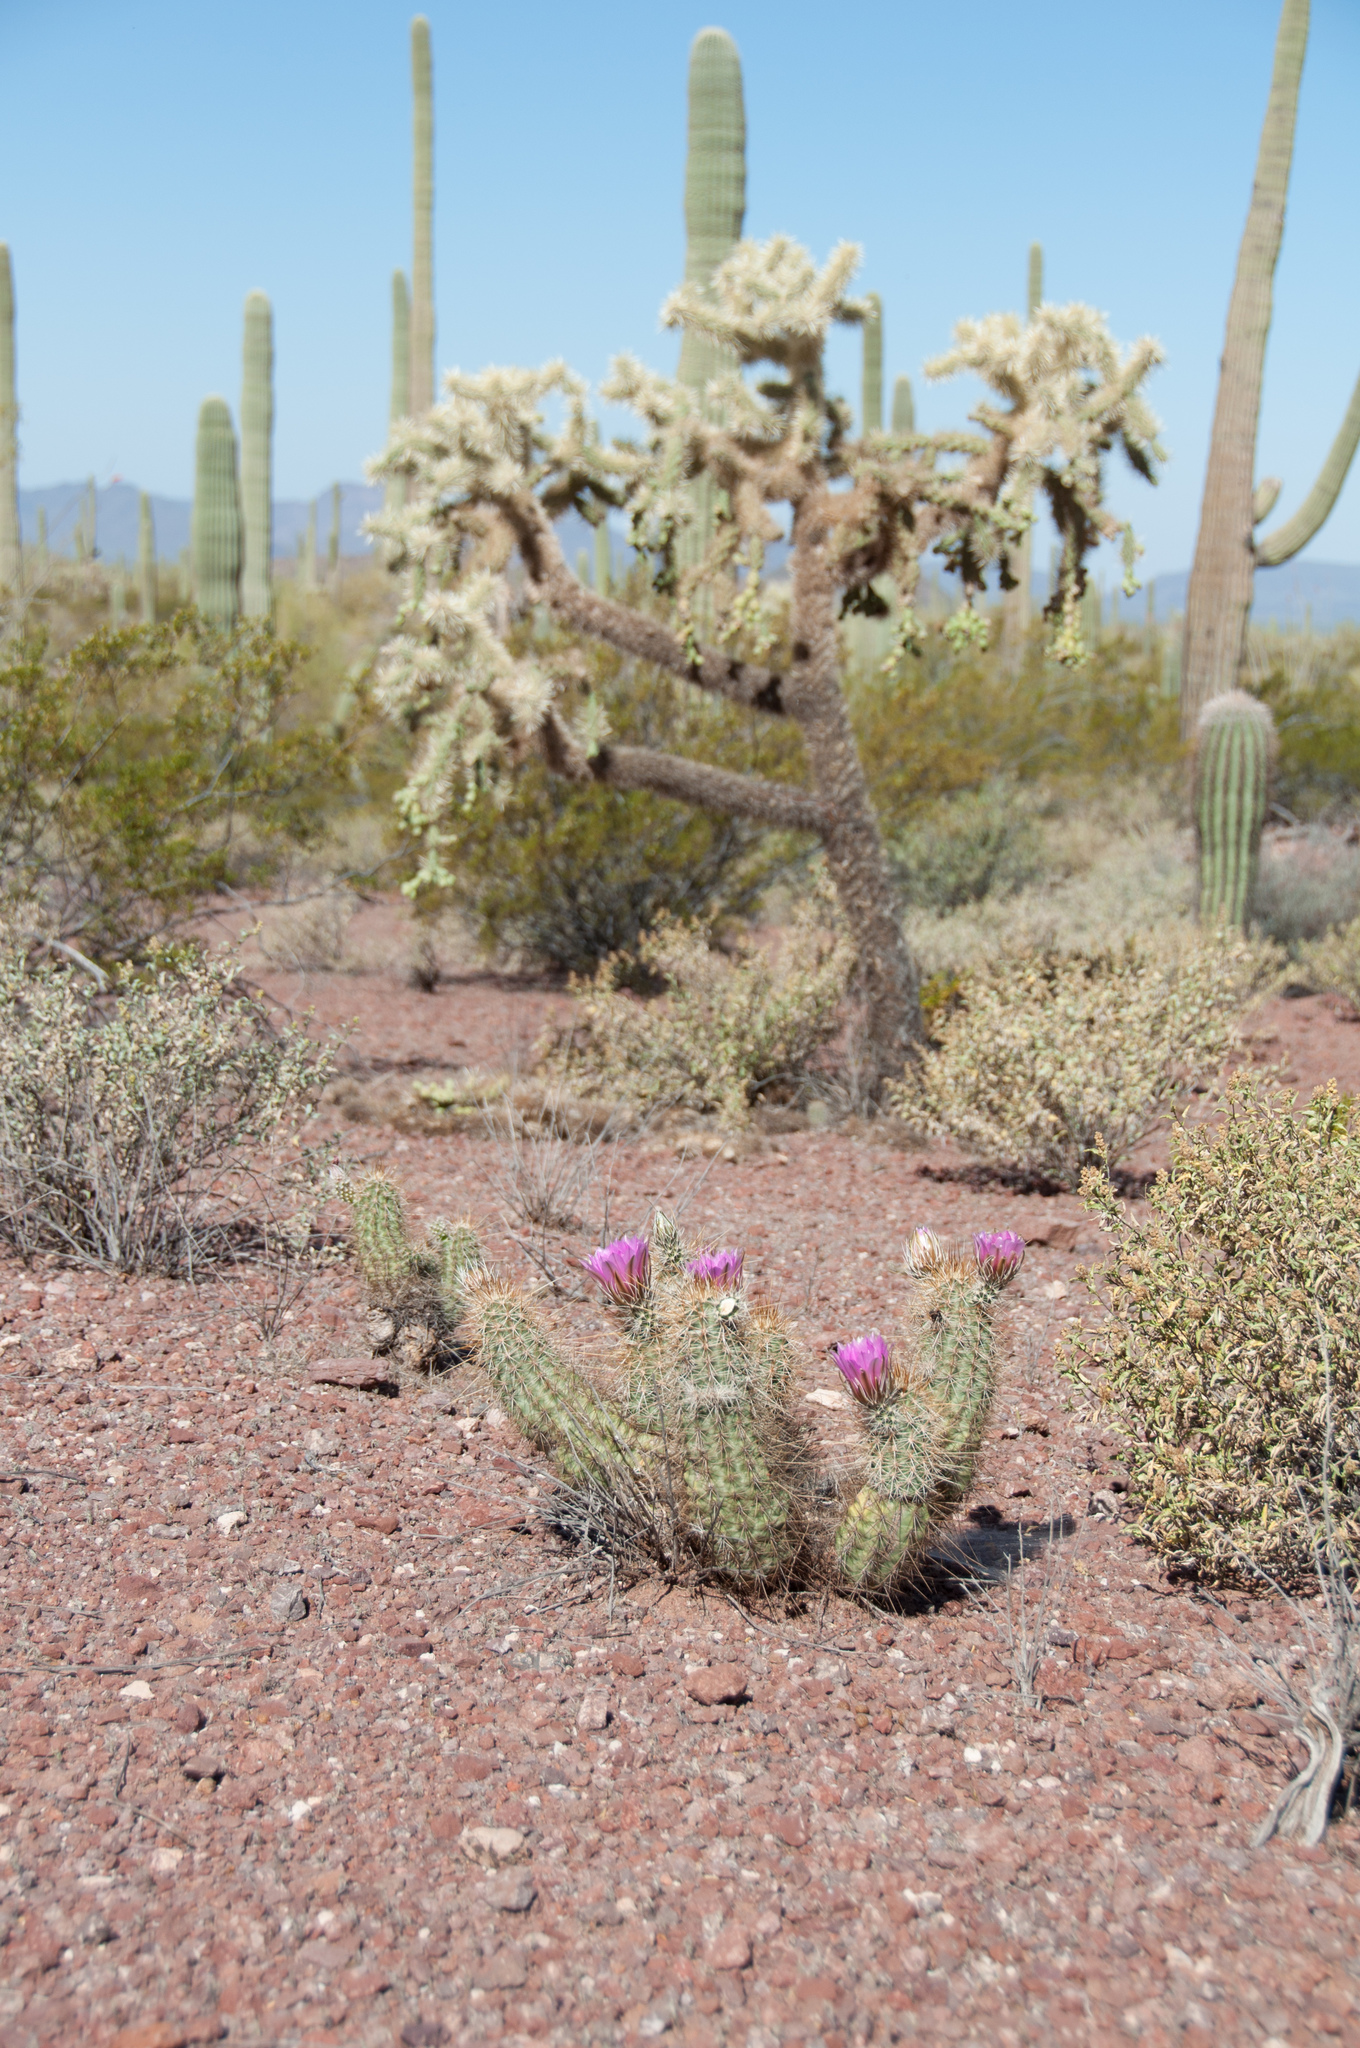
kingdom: Plantae
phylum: Tracheophyta
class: Magnoliopsida
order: Caryophyllales
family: Cactaceae
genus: Echinocereus
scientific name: Echinocereus engelmannii
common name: Engelmann's hedgehog cactus
